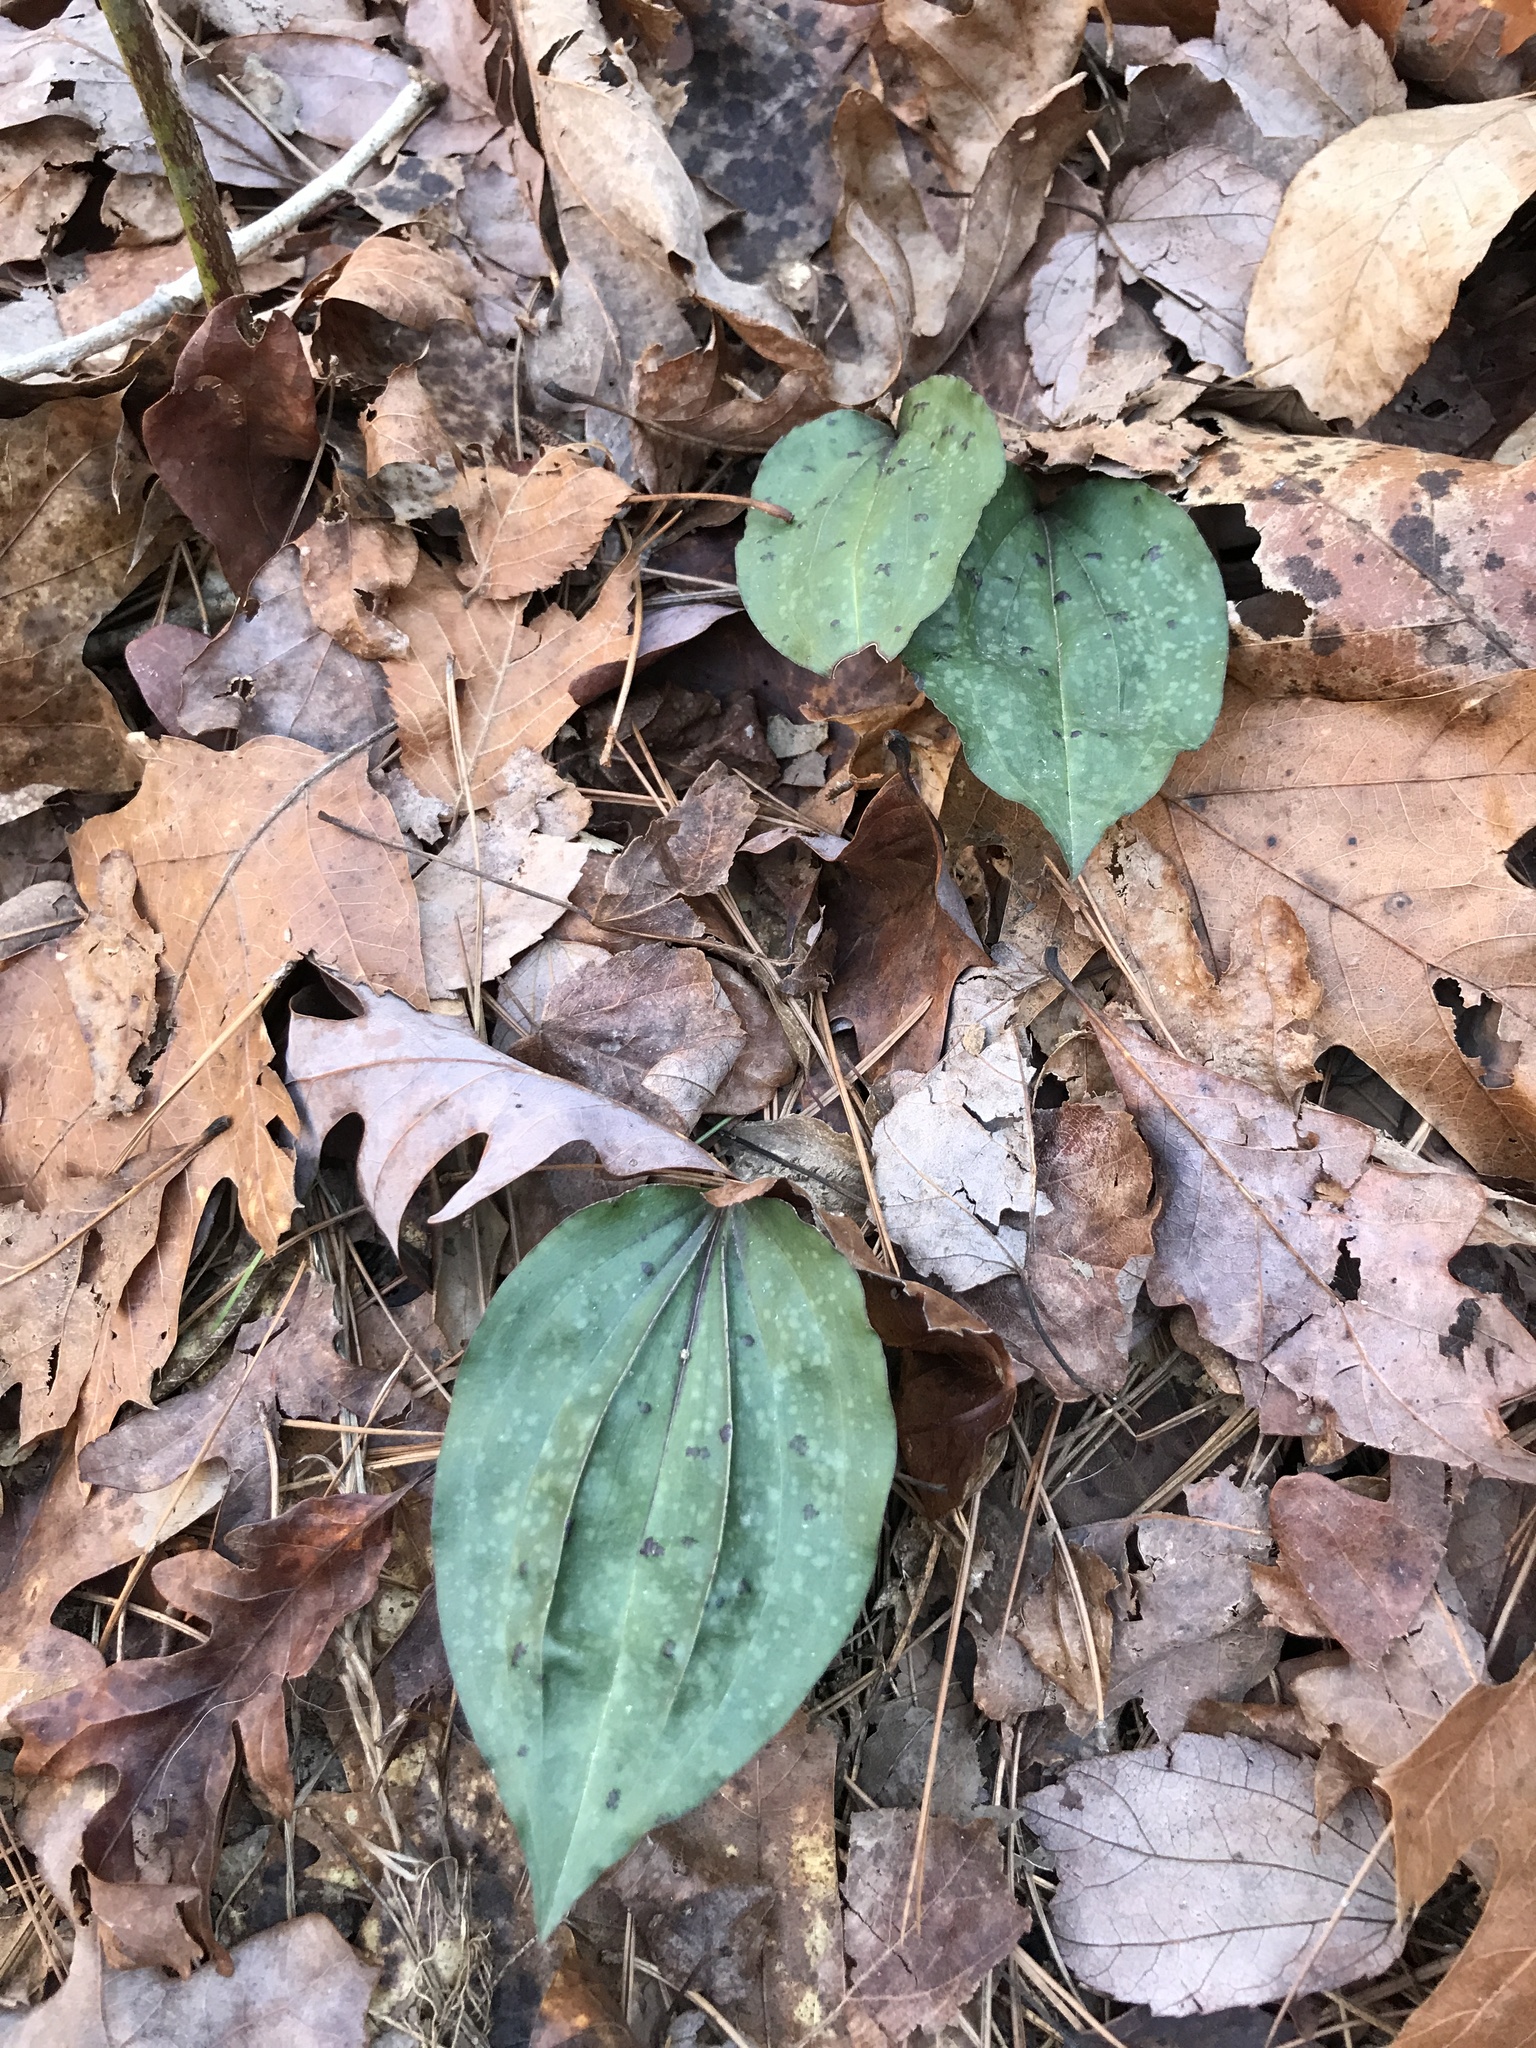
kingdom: Plantae
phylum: Tracheophyta
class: Liliopsida
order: Asparagales
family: Orchidaceae
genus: Tipularia
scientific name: Tipularia discolor
